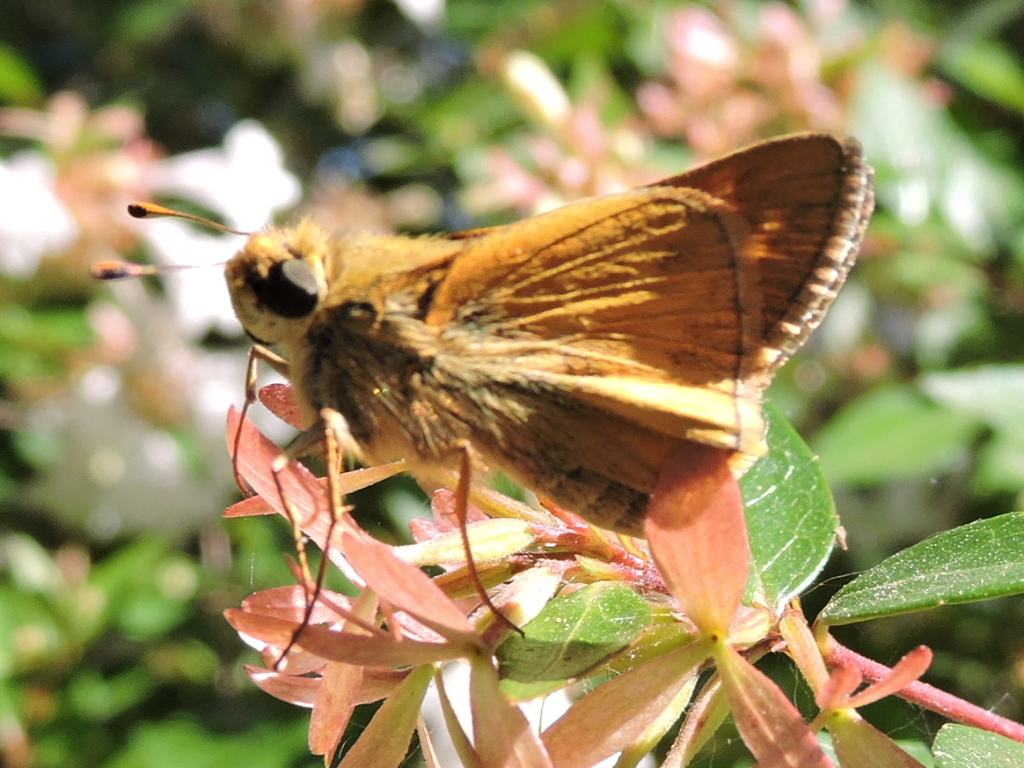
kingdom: Animalia
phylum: Arthropoda
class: Insecta
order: Lepidoptera
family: Hesperiidae
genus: Atalopedes
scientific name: Atalopedes
